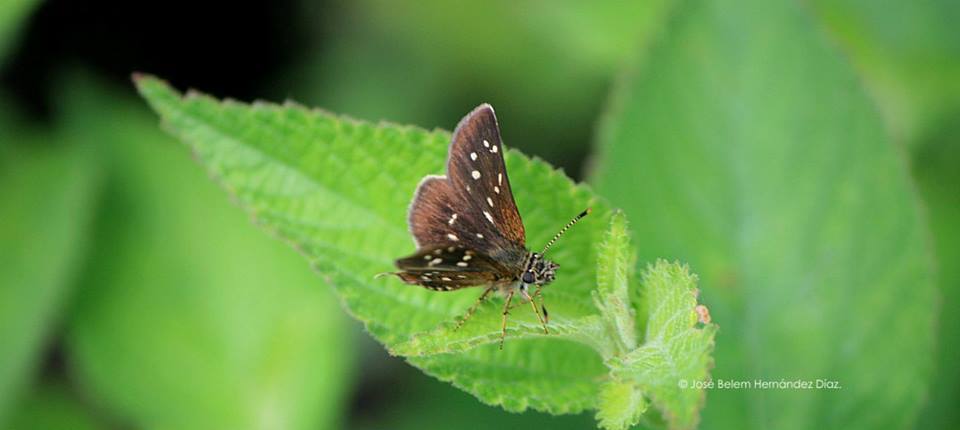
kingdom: Animalia
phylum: Arthropoda
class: Insecta
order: Lepidoptera
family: Hesperiidae
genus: Piruna
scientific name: Piruna aea
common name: Many-spotted skipperling
